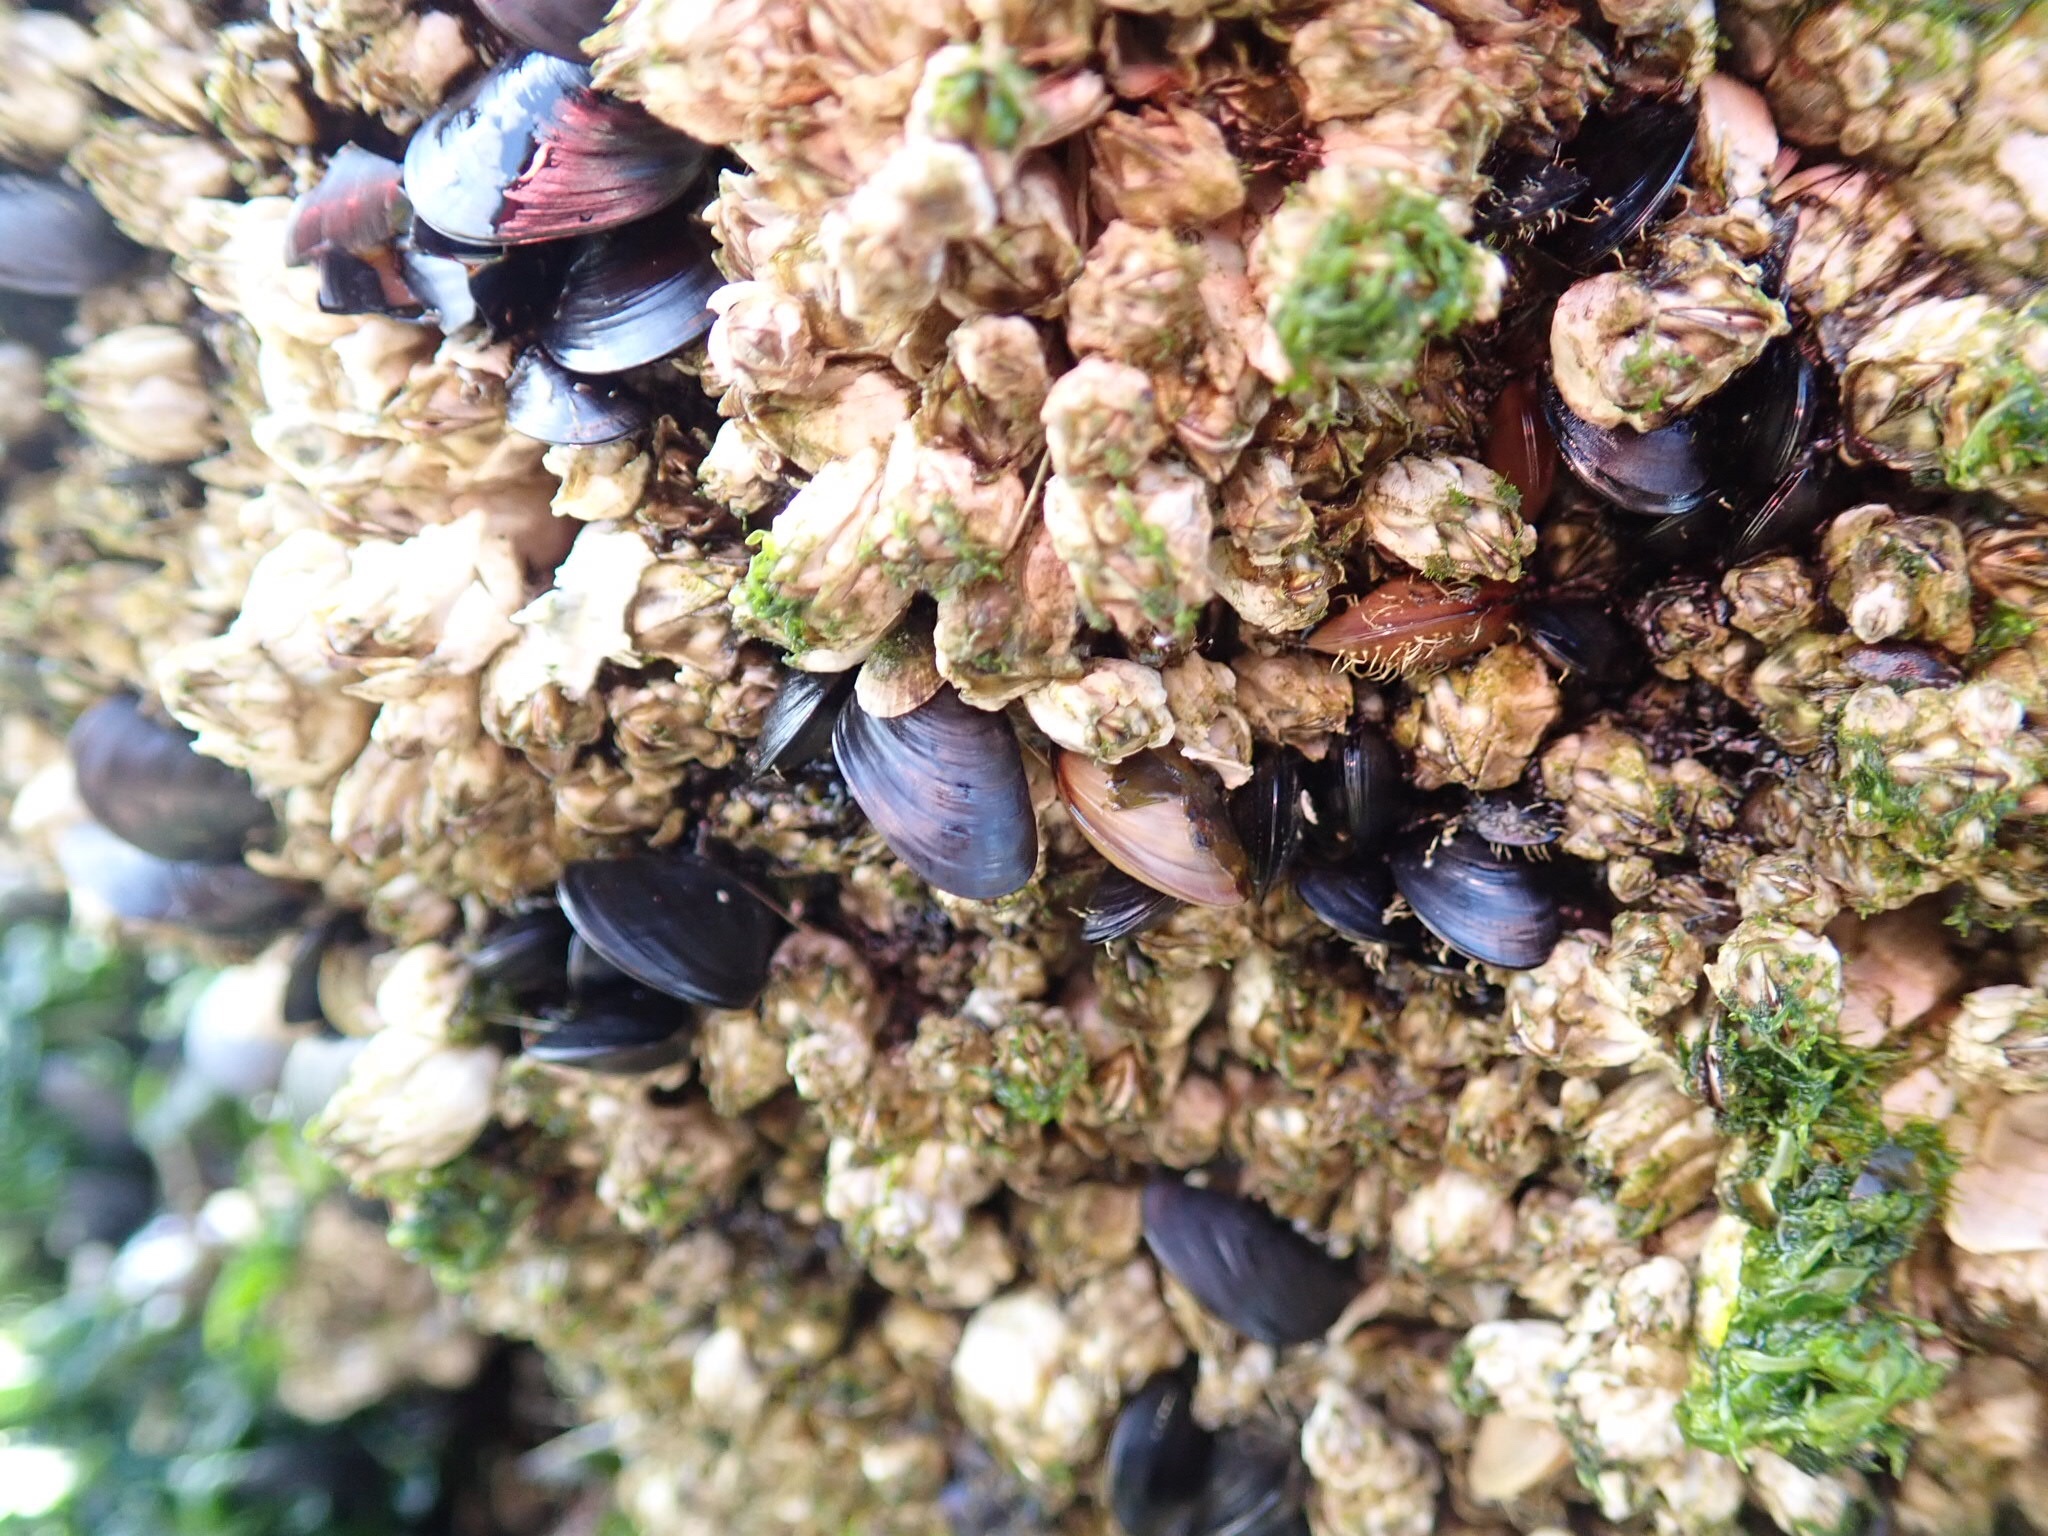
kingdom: Animalia
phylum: Mollusca
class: Bivalvia
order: Mytilida
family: Mytilidae
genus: Mytilus
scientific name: Mytilus
